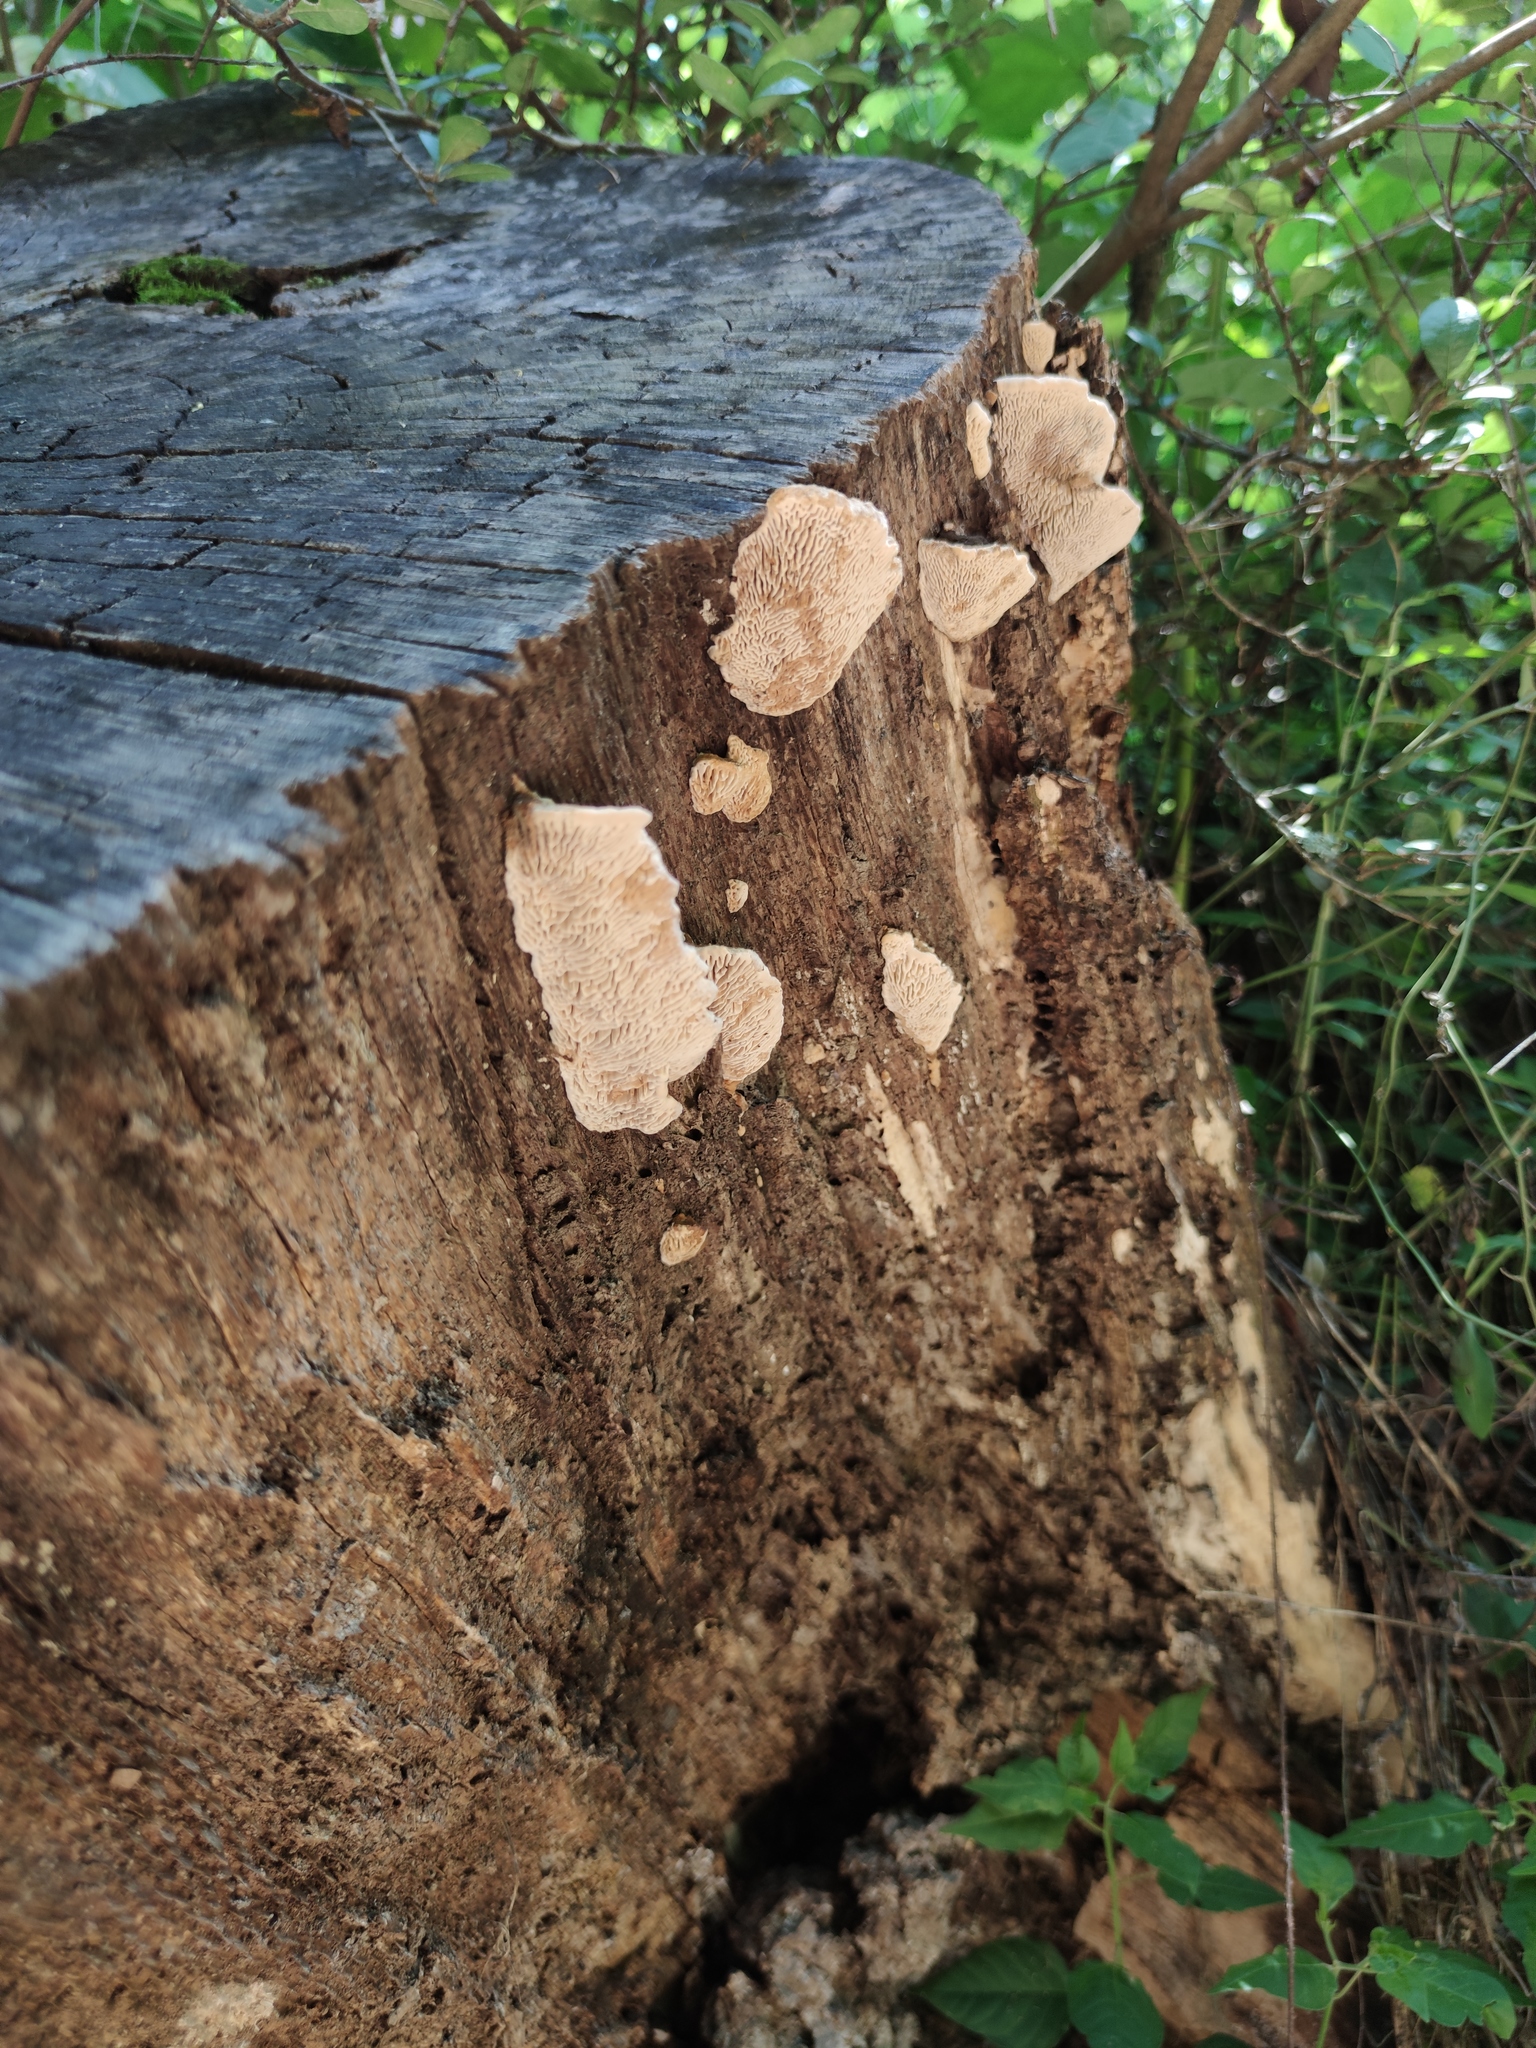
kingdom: Fungi
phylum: Basidiomycota
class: Agaricomycetes
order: Polyporales
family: Fomitopsidaceae
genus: Fomitopsis
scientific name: Fomitopsis
